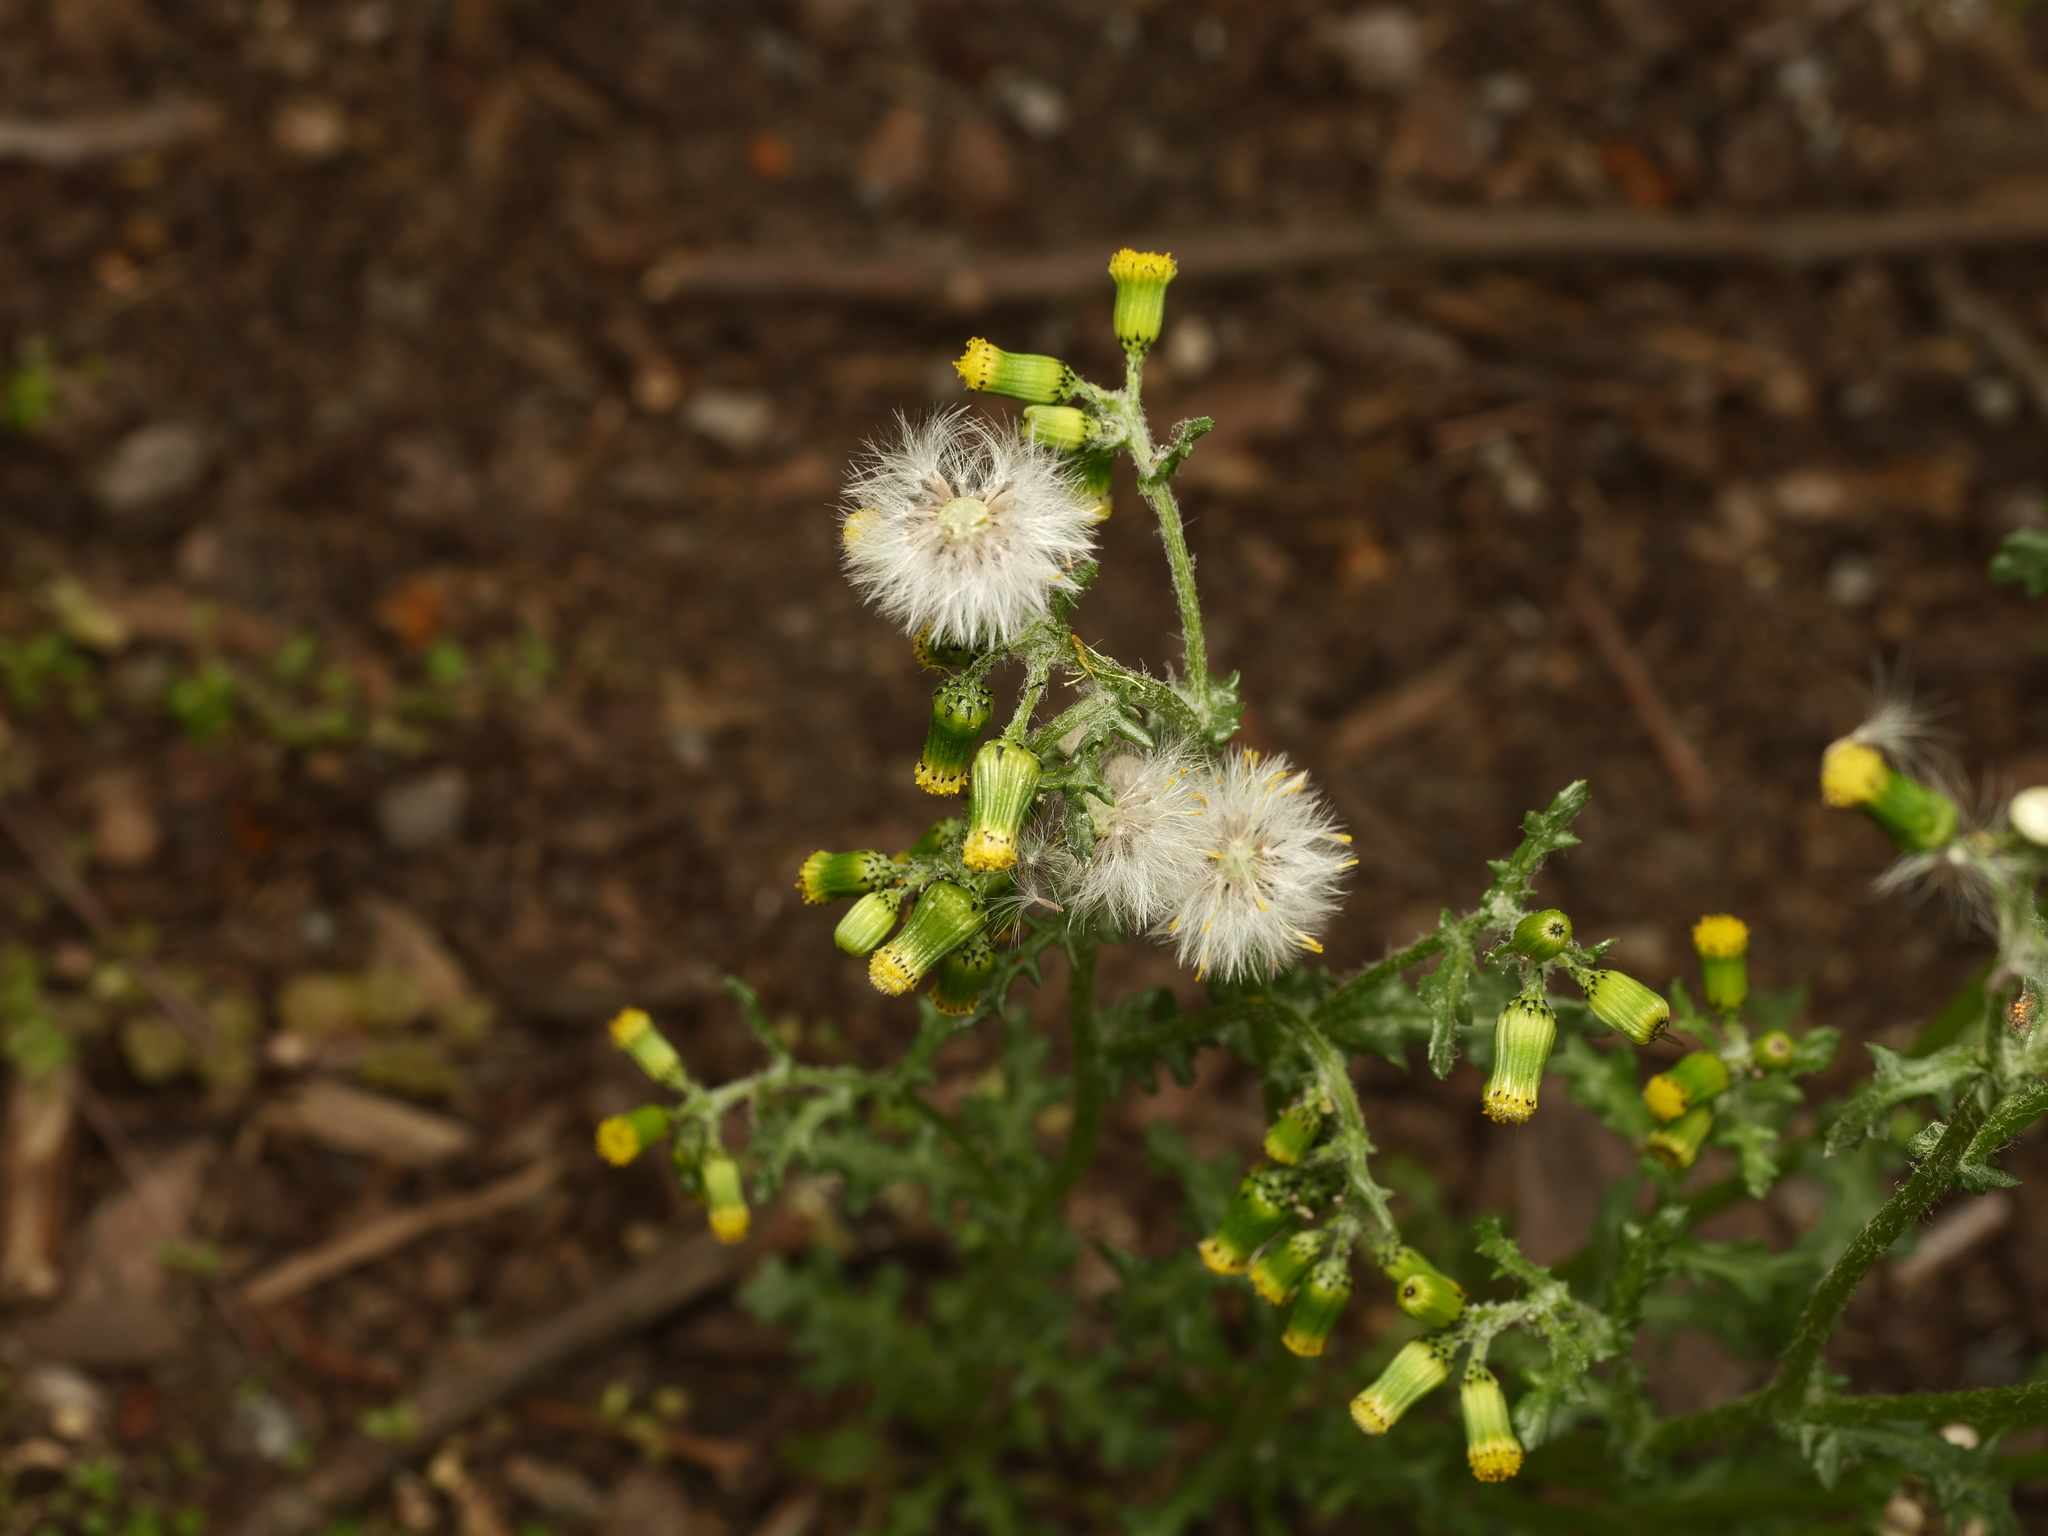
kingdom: Plantae
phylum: Tracheophyta
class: Magnoliopsida
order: Asterales
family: Asteraceae
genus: Senecio
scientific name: Senecio vulgaris
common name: Old-man-in-the-spring
